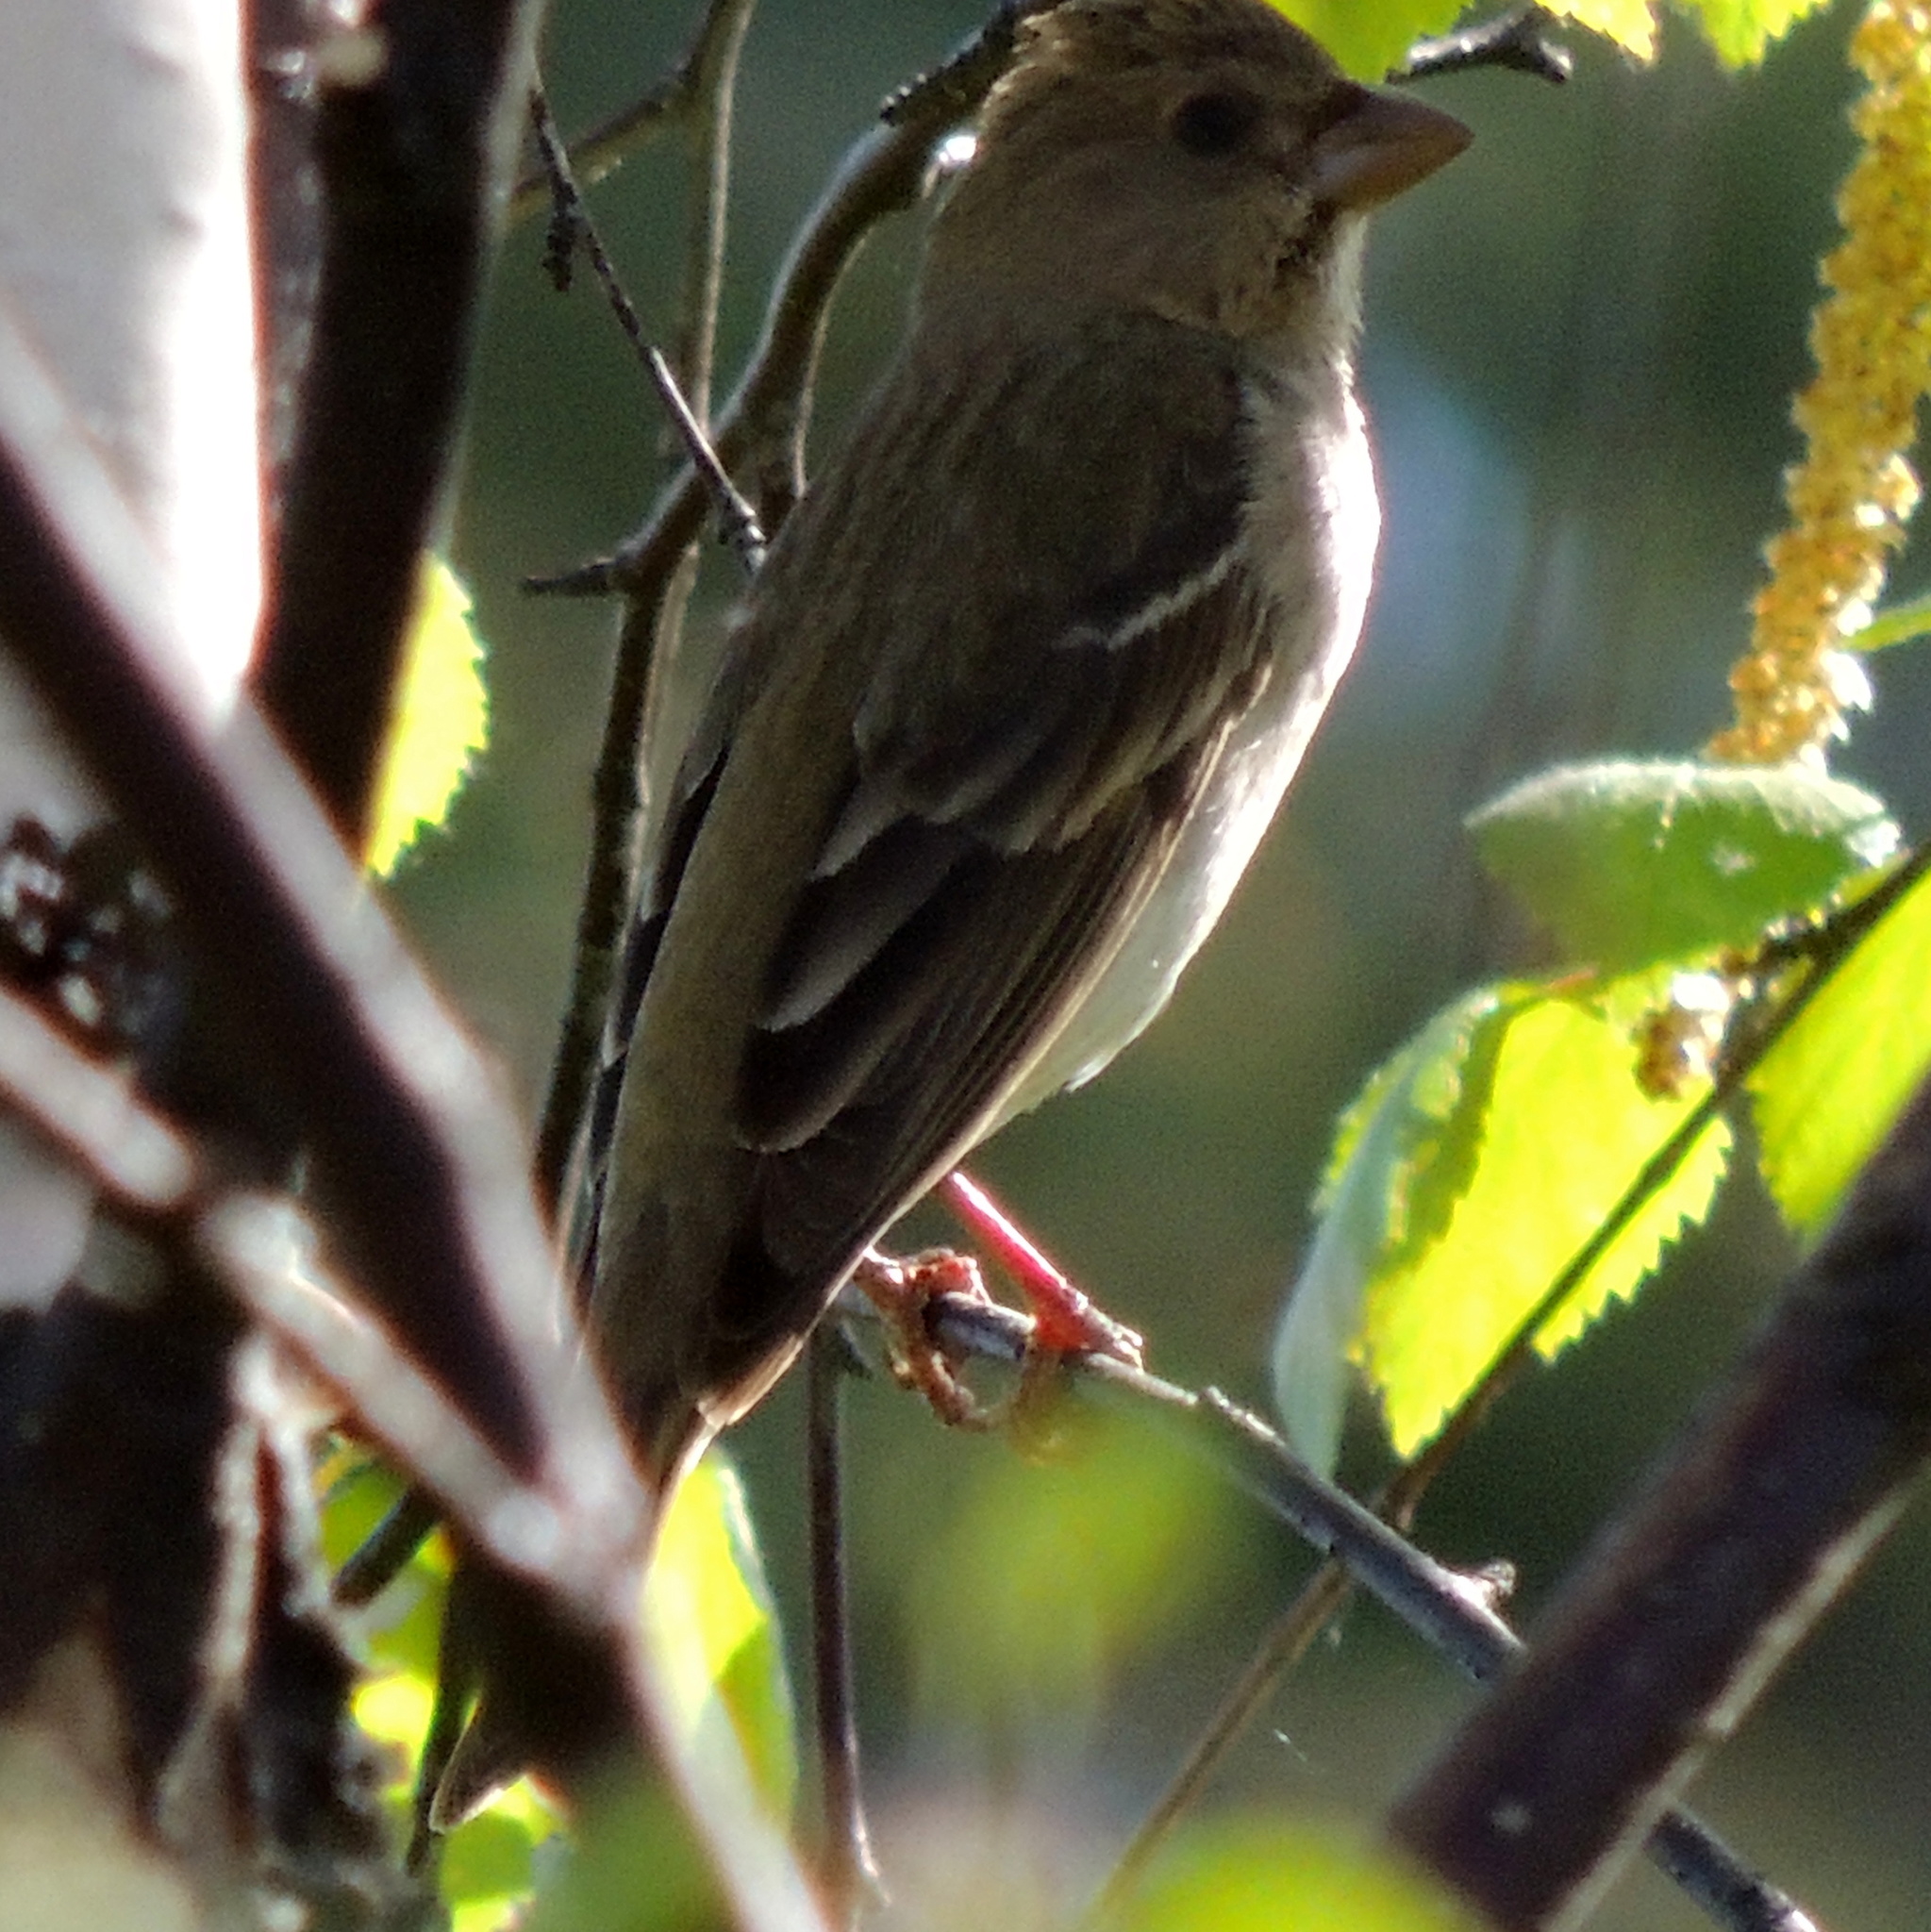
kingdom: Animalia
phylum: Chordata
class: Aves
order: Passeriformes
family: Fringillidae
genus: Carpodacus
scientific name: Carpodacus erythrinus
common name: Common rosefinch
